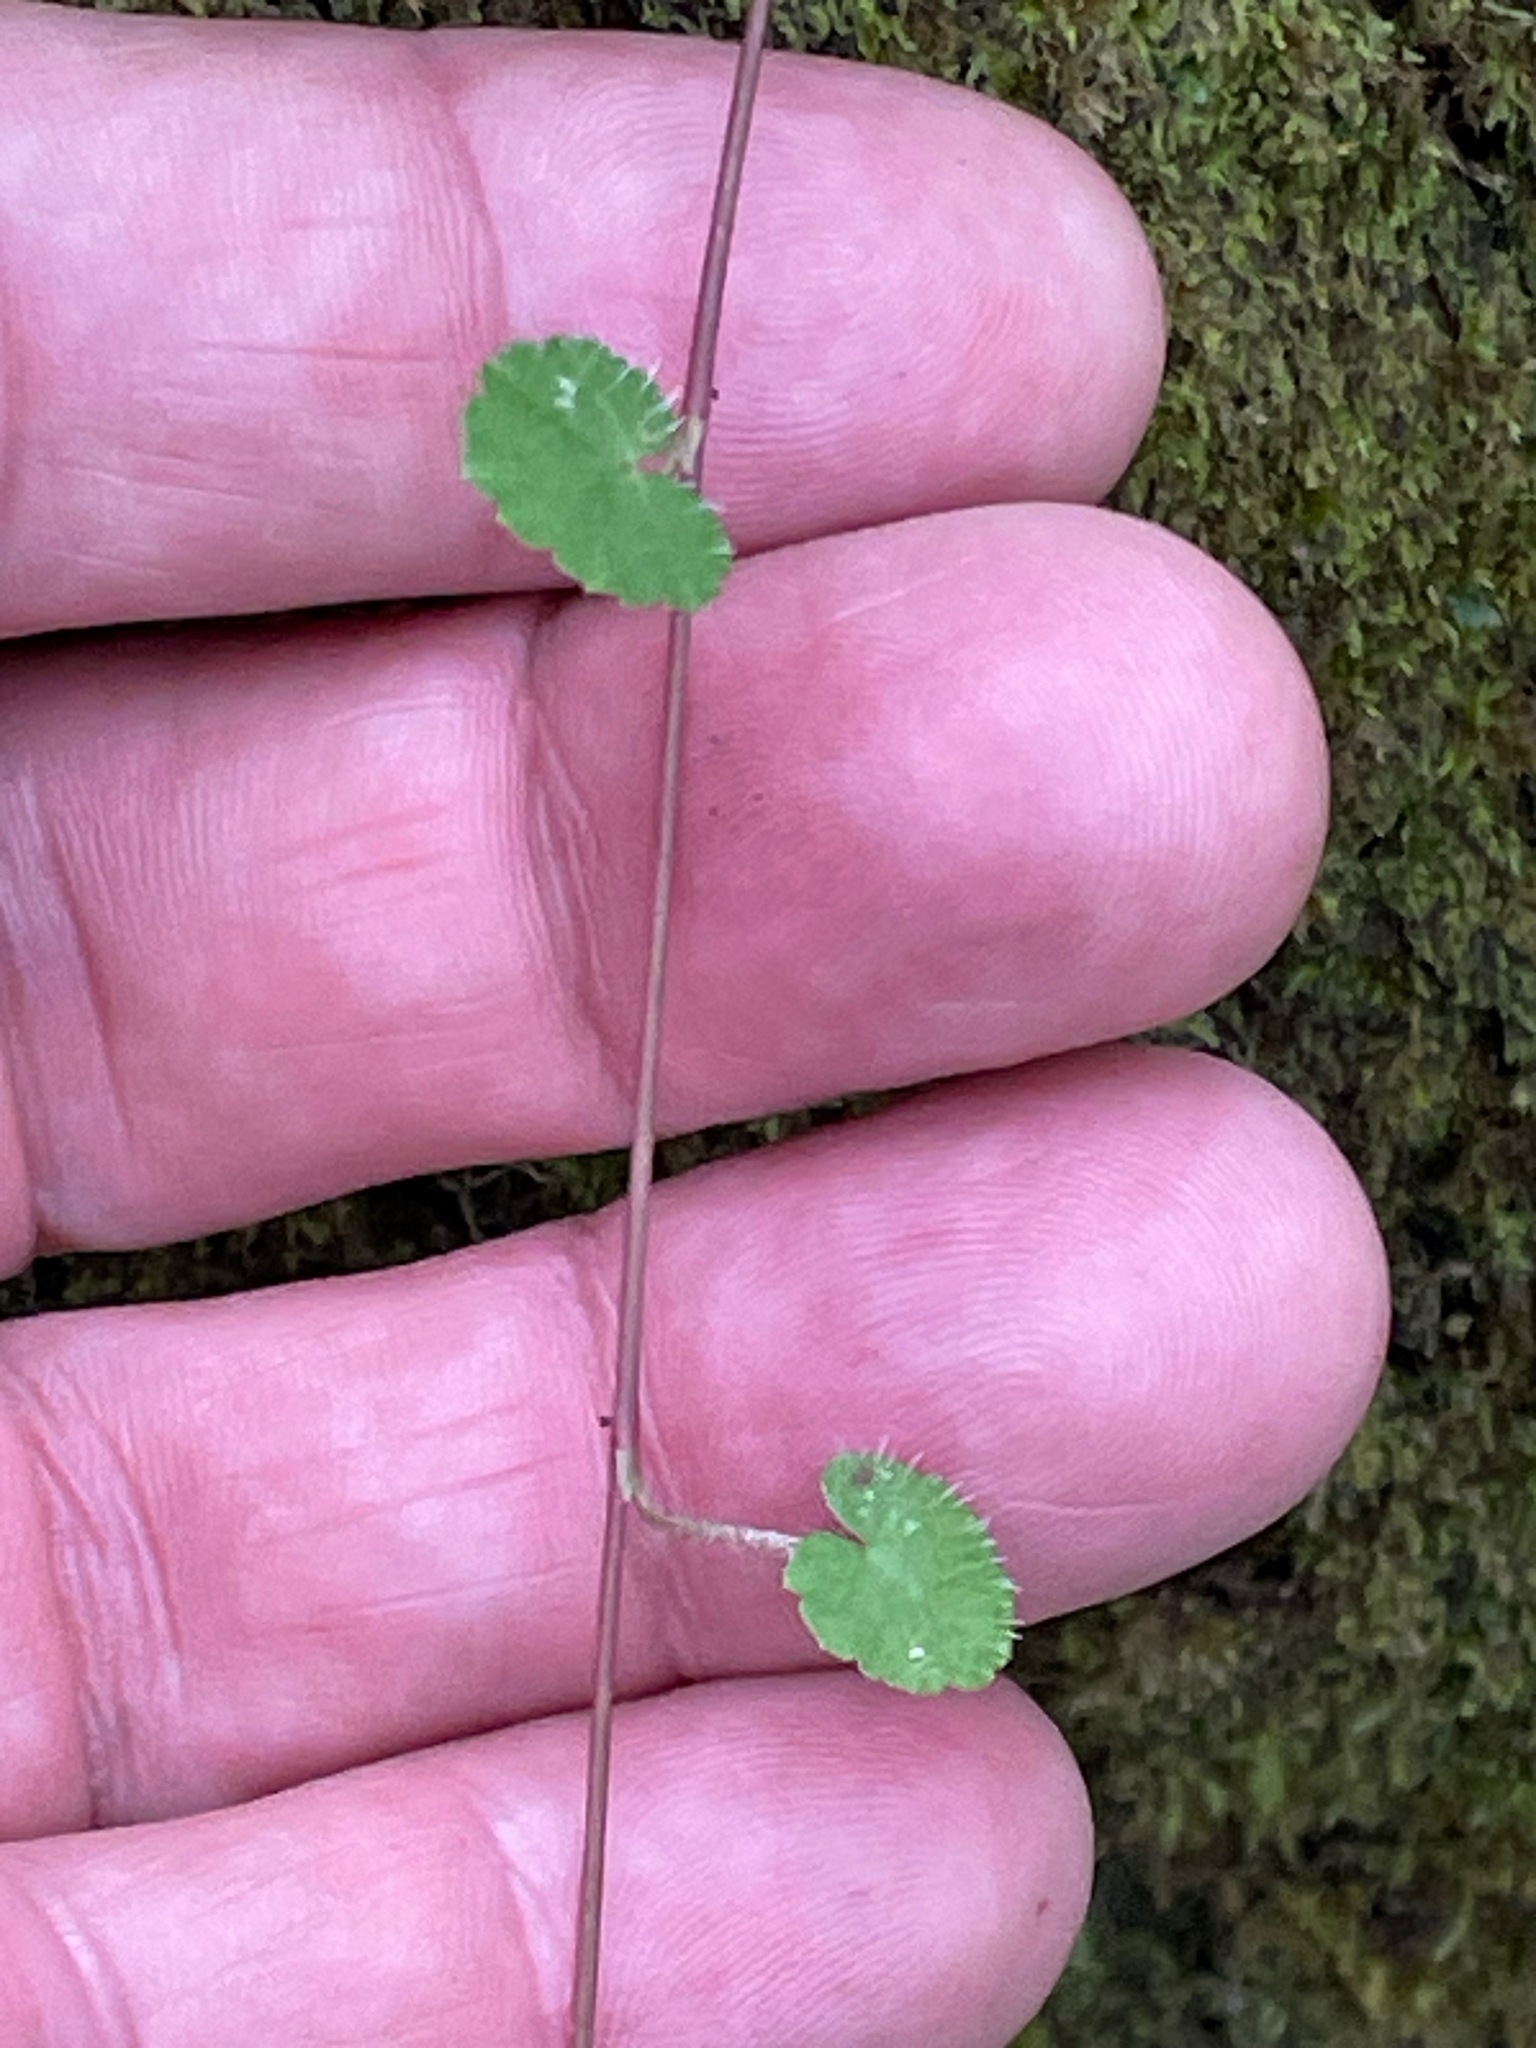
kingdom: Plantae
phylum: Tracheophyta
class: Magnoliopsida
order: Saxifragales
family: Saxifragaceae
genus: Mitella
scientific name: Mitella nuda
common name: Bare-stemmed bishop's-cap
